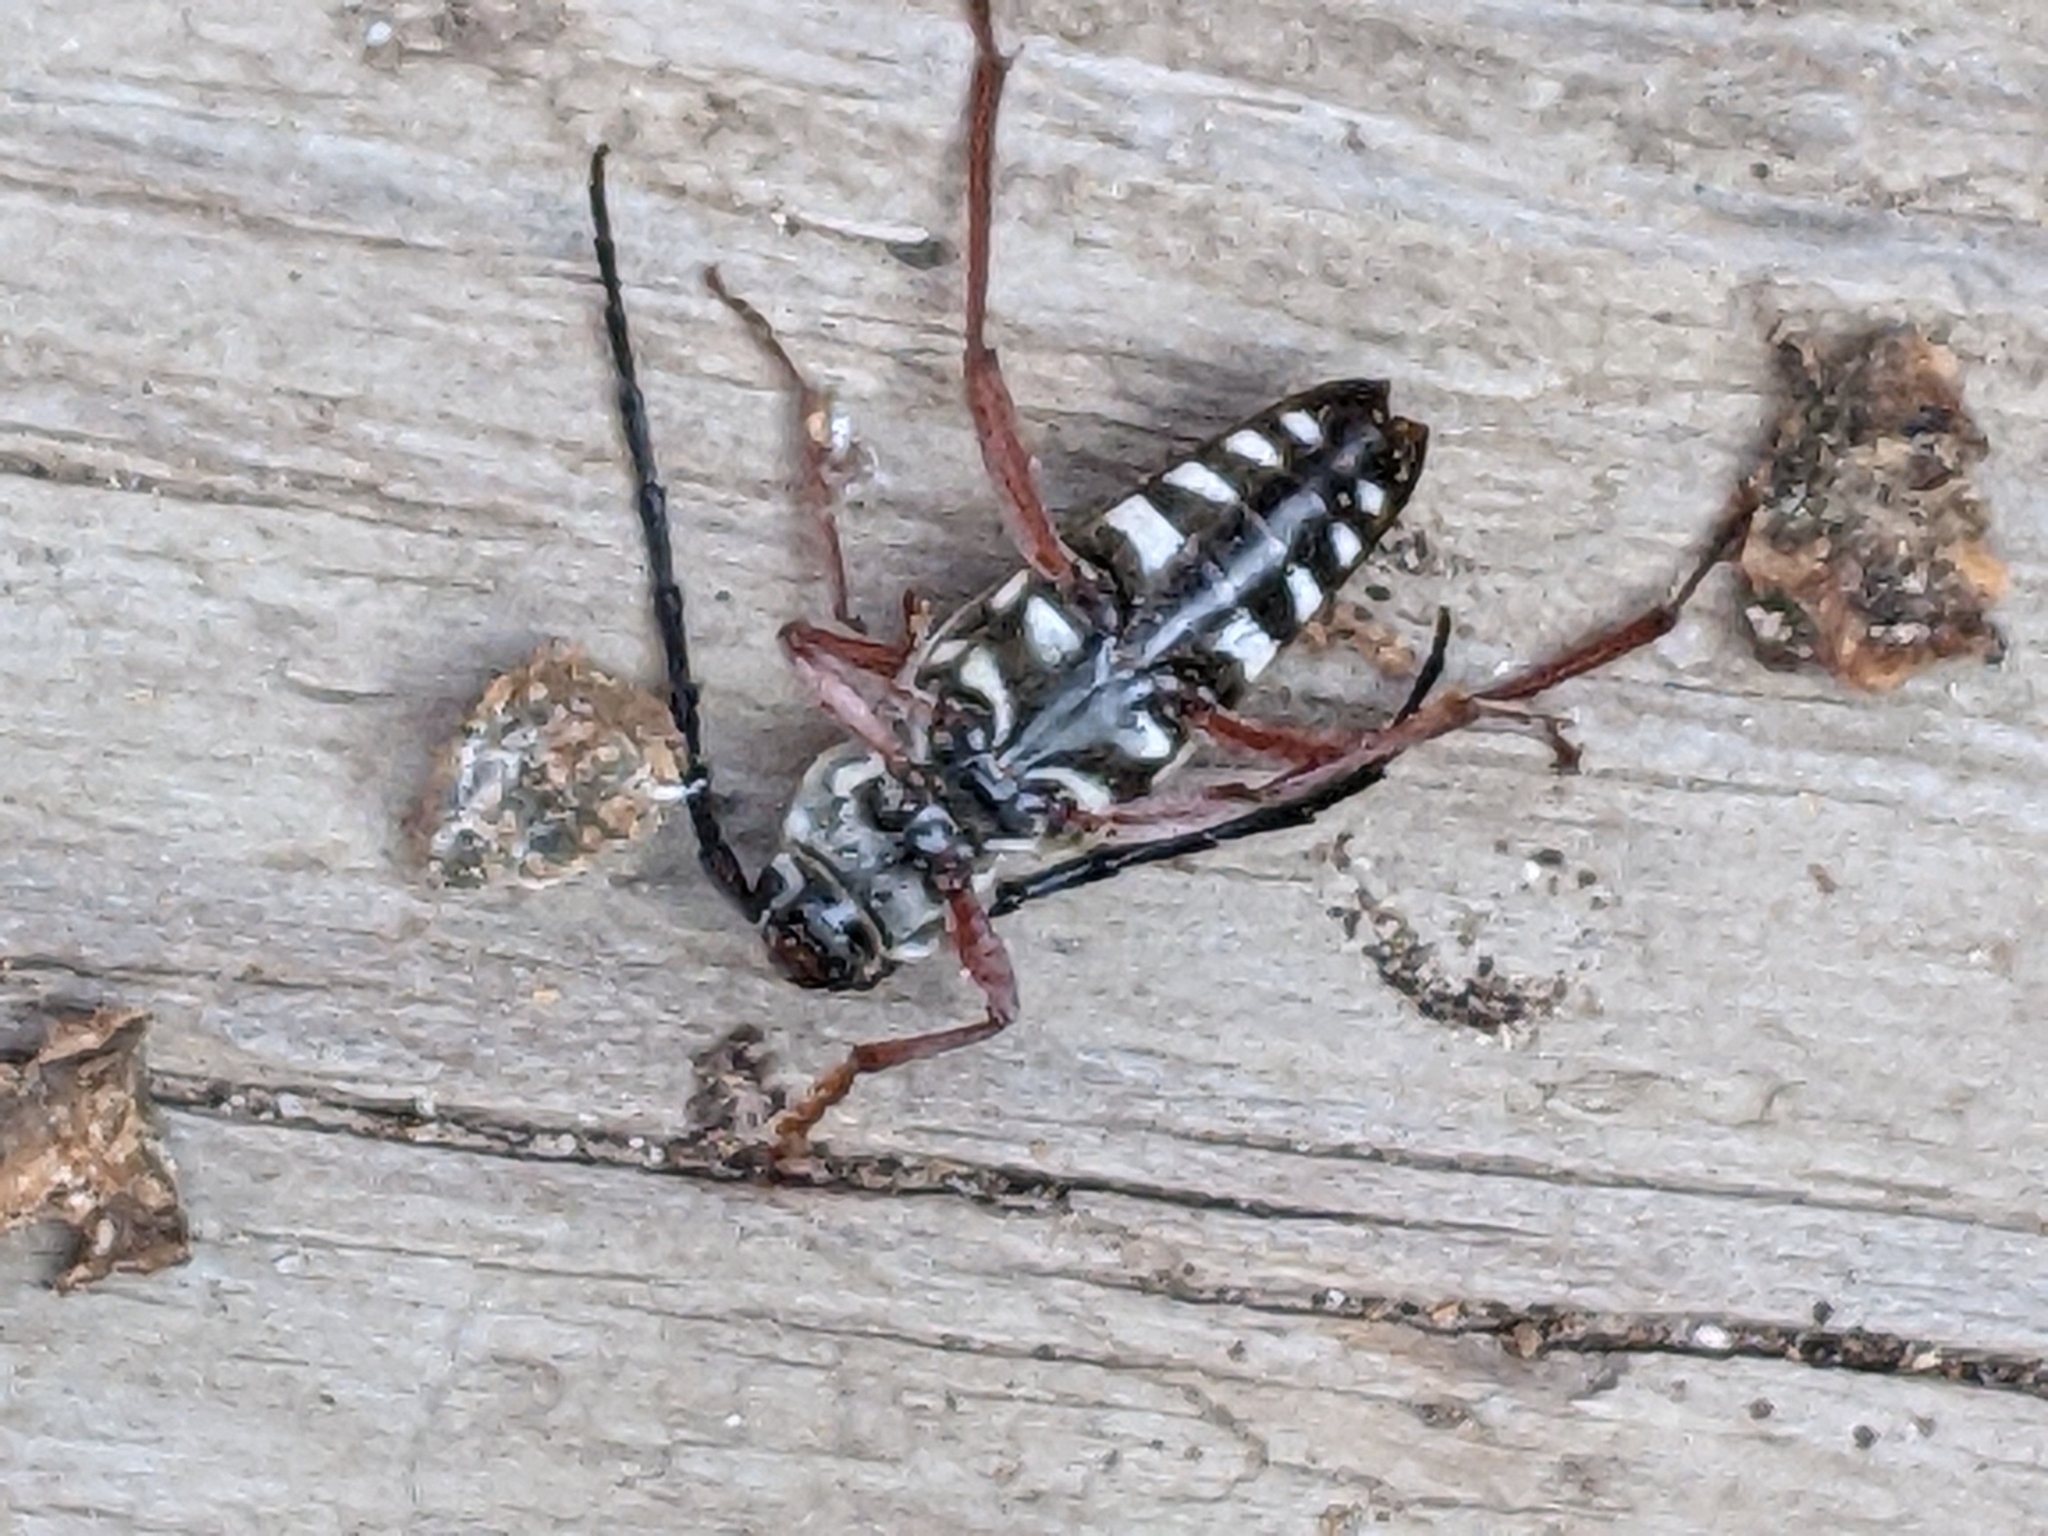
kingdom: Animalia
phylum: Arthropoda
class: Insecta
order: Coleoptera
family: Cerambycidae
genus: Megacyllene
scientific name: Megacyllene caryae
